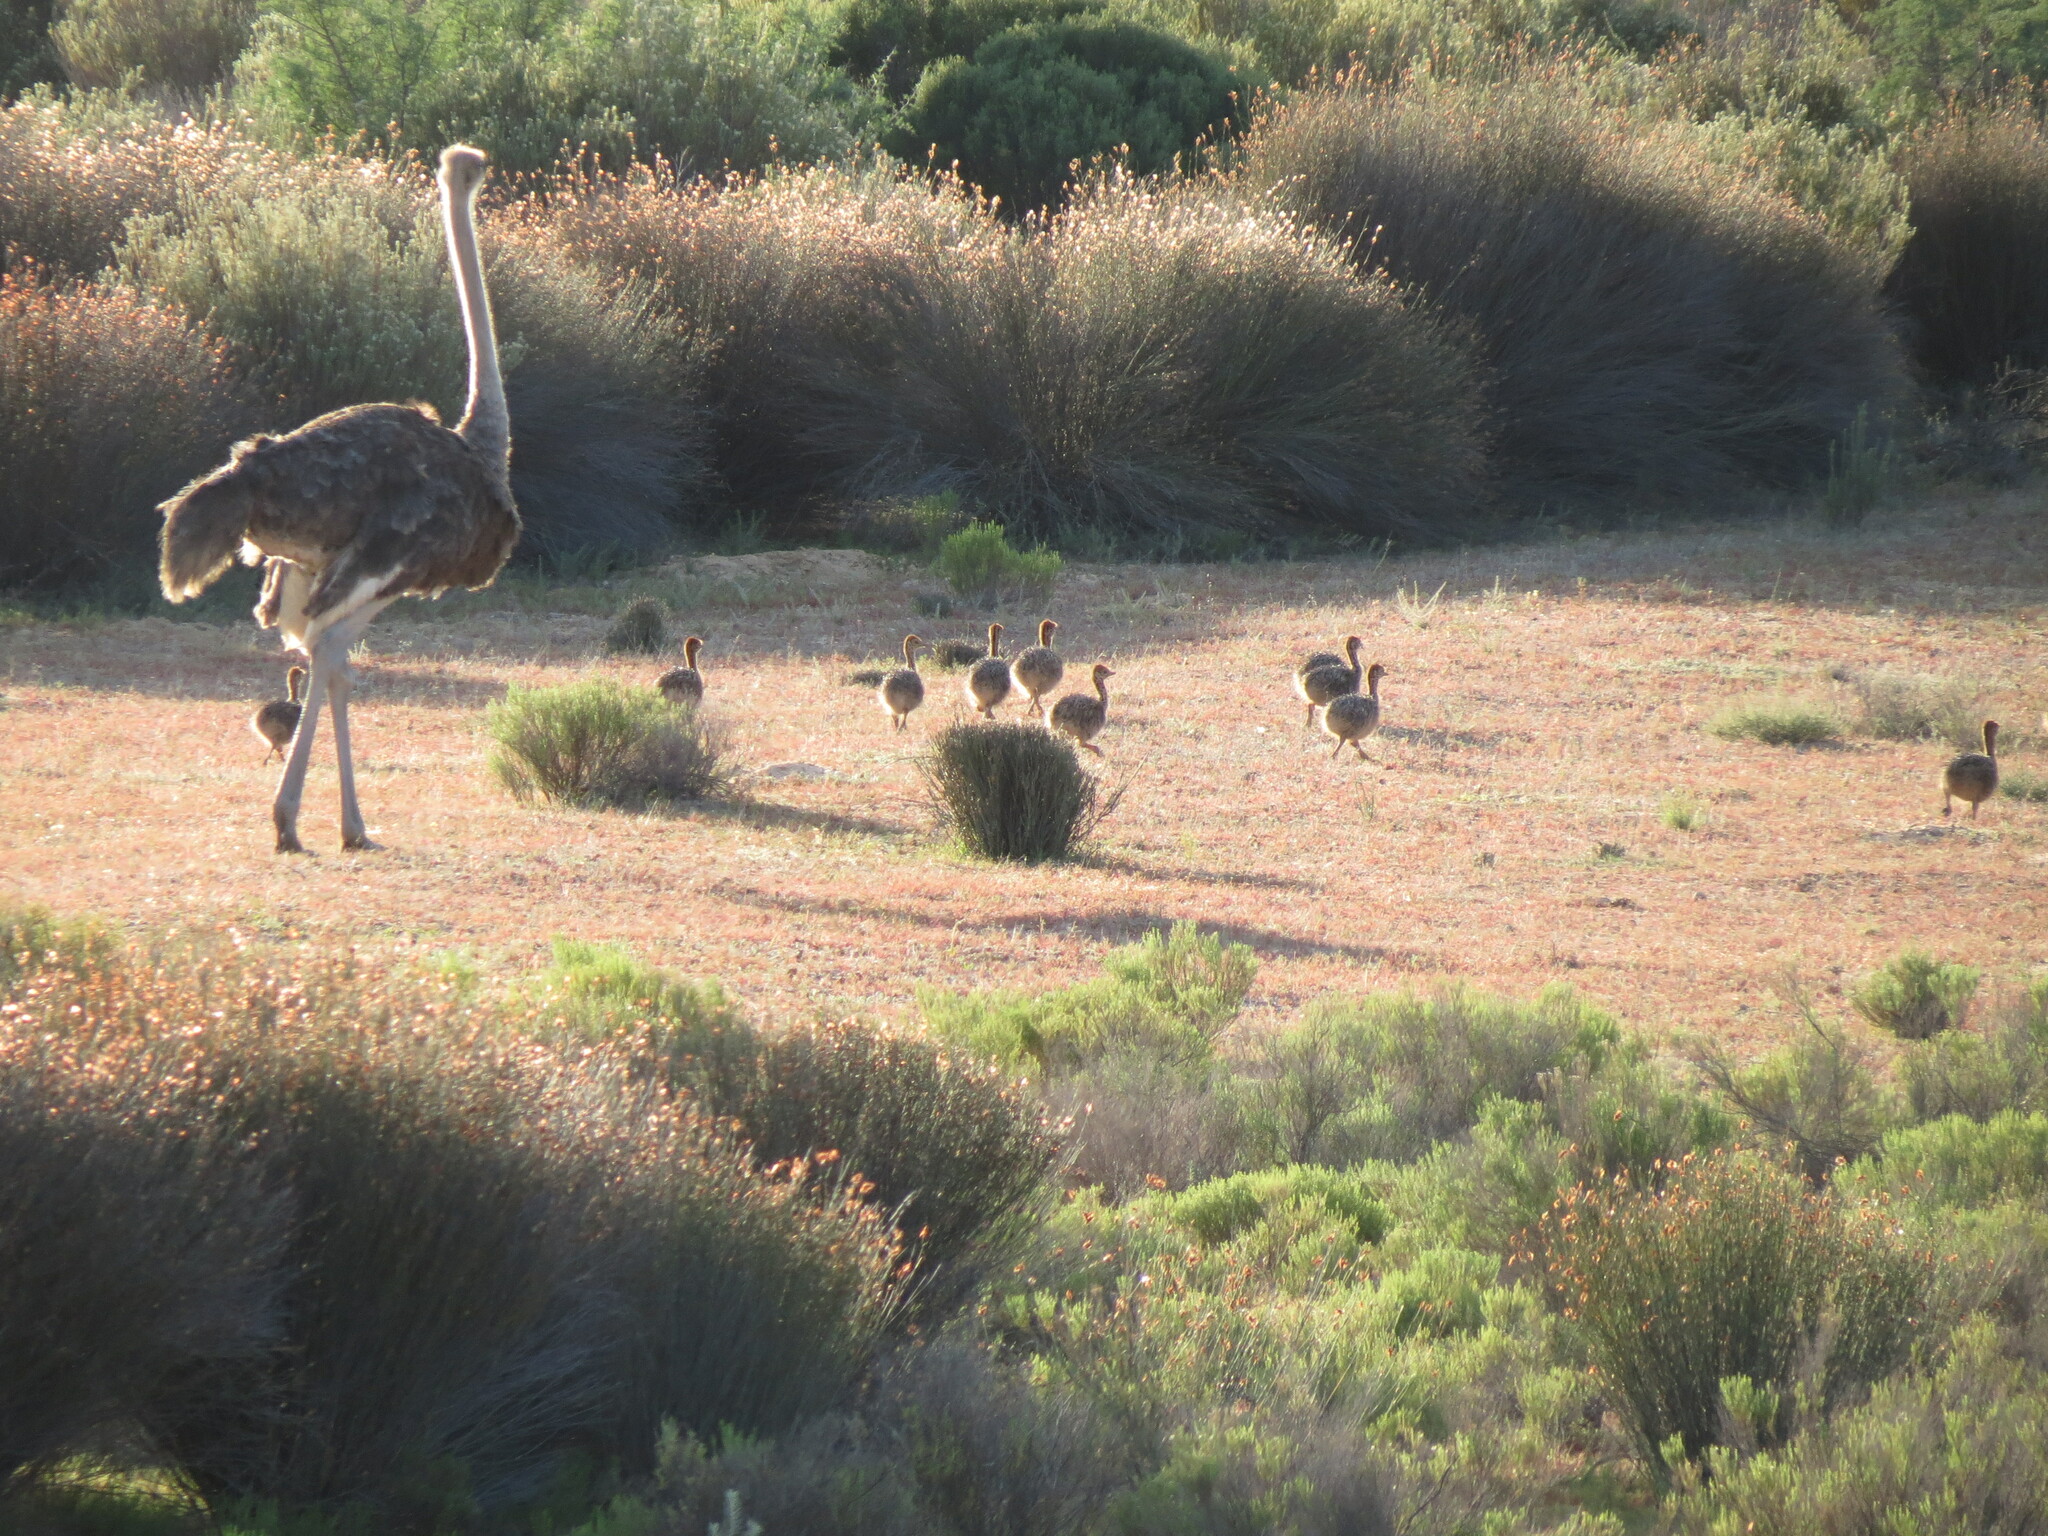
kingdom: Animalia
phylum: Chordata
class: Aves
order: Struthioniformes
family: Struthionidae
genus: Struthio
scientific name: Struthio camelus
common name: Common ostrich
